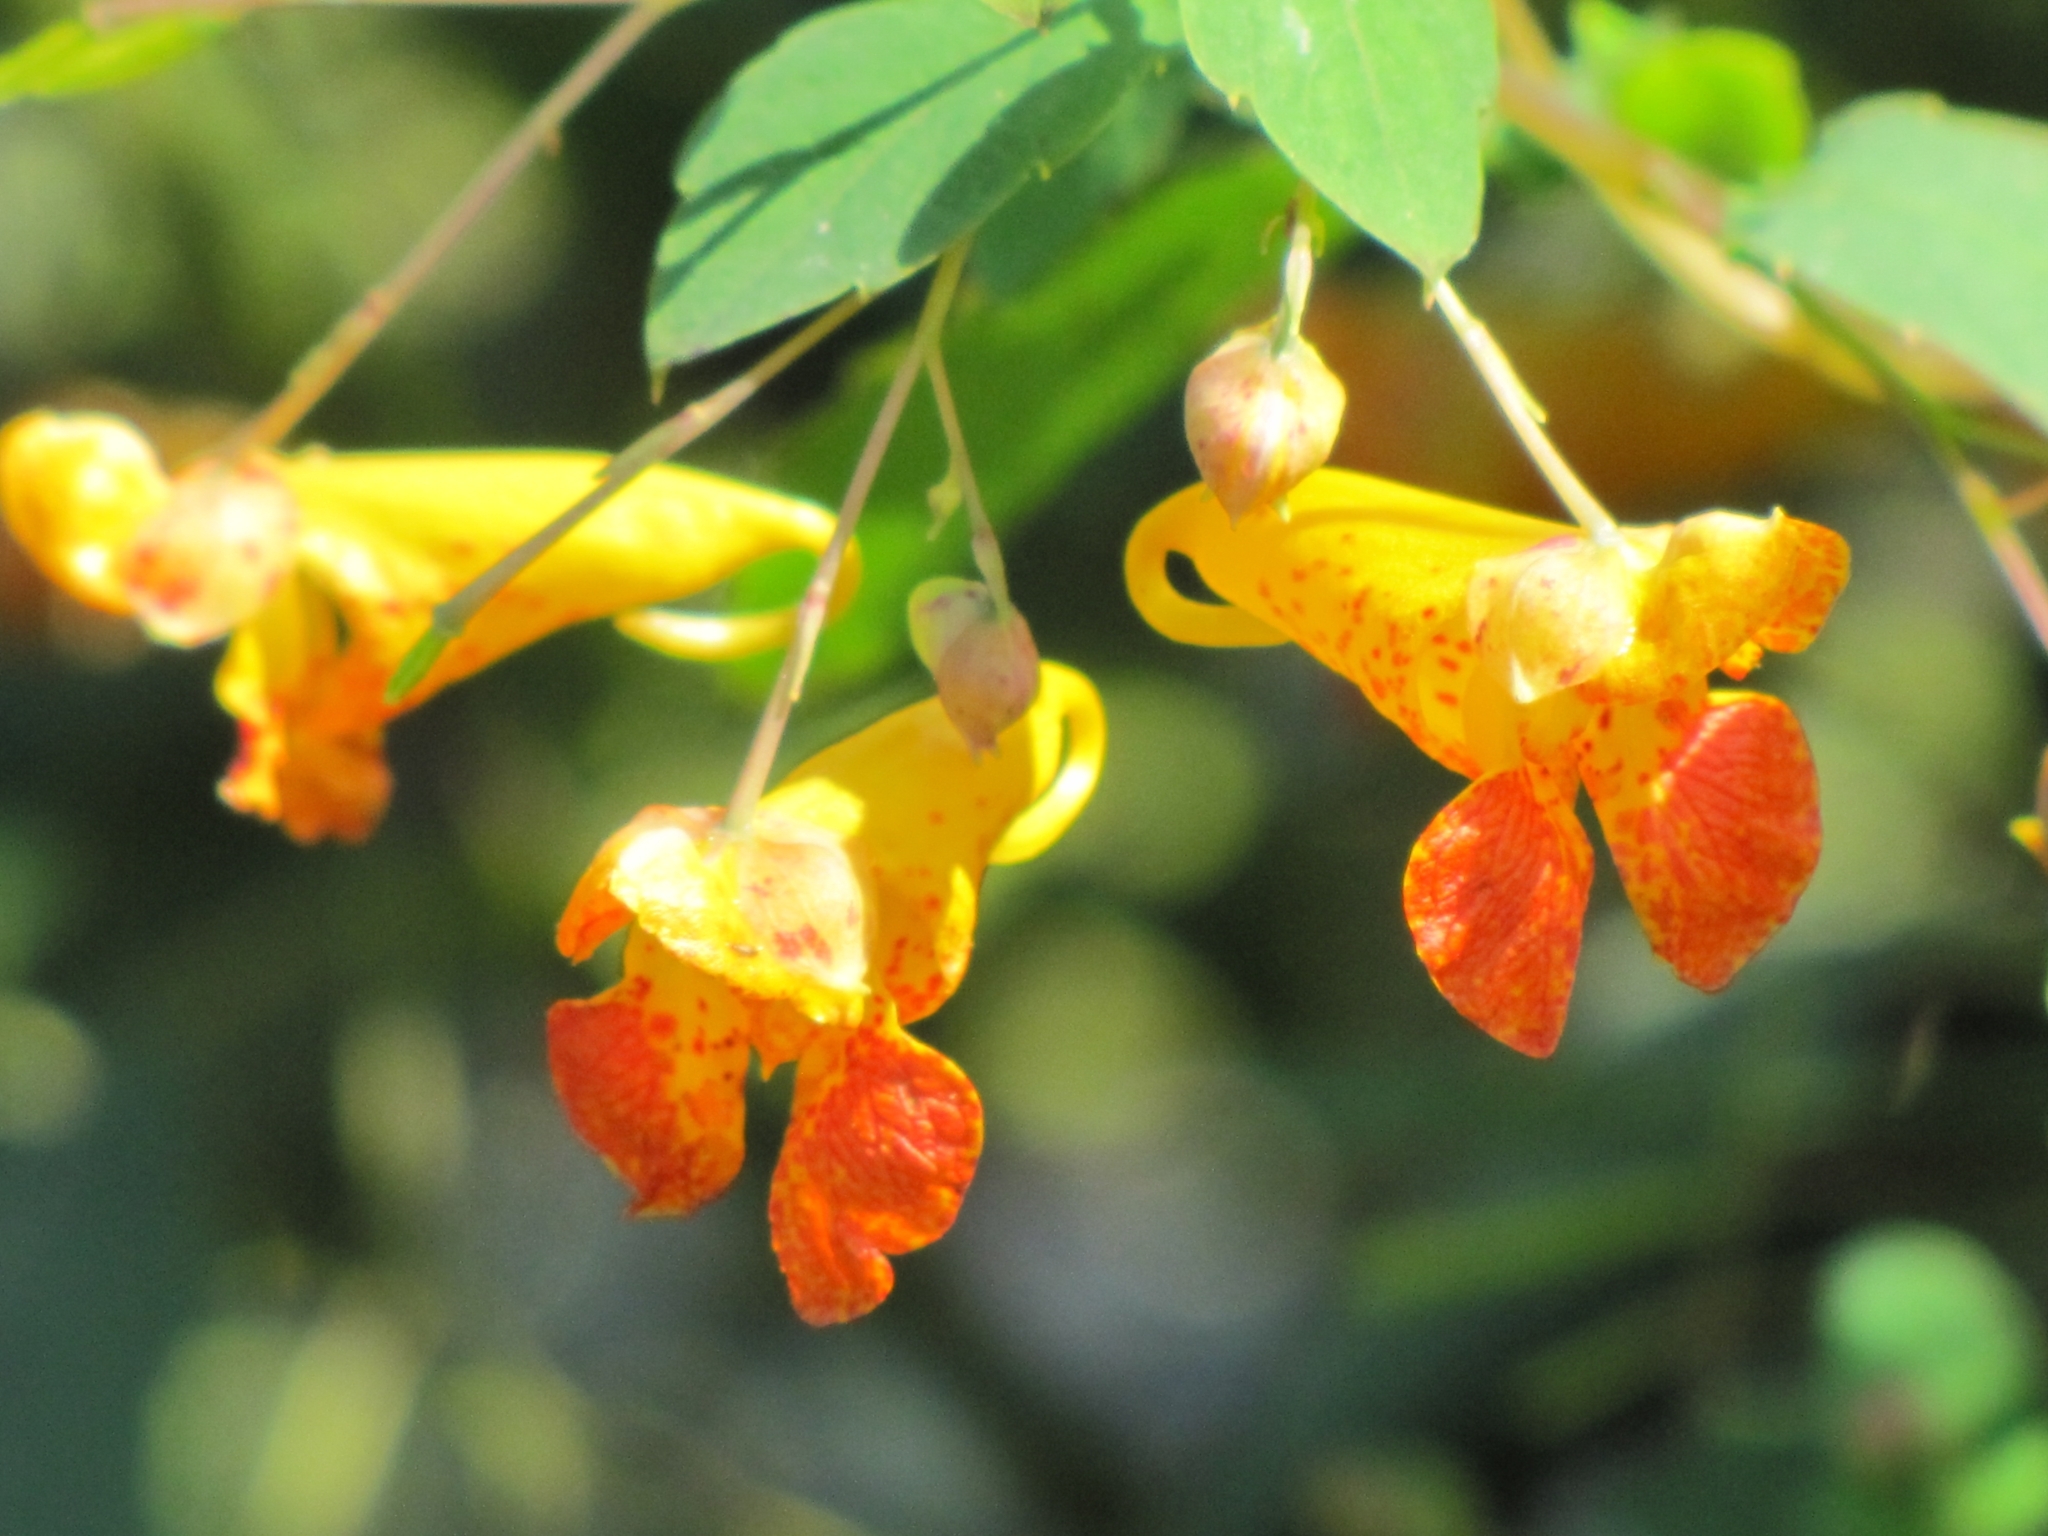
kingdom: Plantae
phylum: Tracheophyta
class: Magnoliopsida
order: Ericales
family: Balsaminaceae
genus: Impatiens
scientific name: Impatiens capensis
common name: Orange balsam
